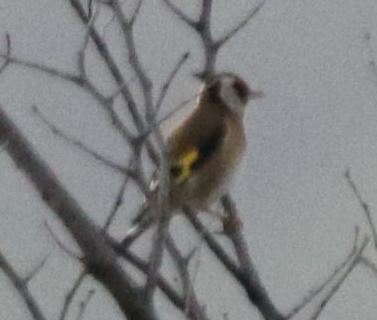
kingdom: Animalia
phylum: Chordata
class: Aves
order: Passeriformes
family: Fringillidae
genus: Carduelis
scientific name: Carduelis carduelis
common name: European goldfinch
